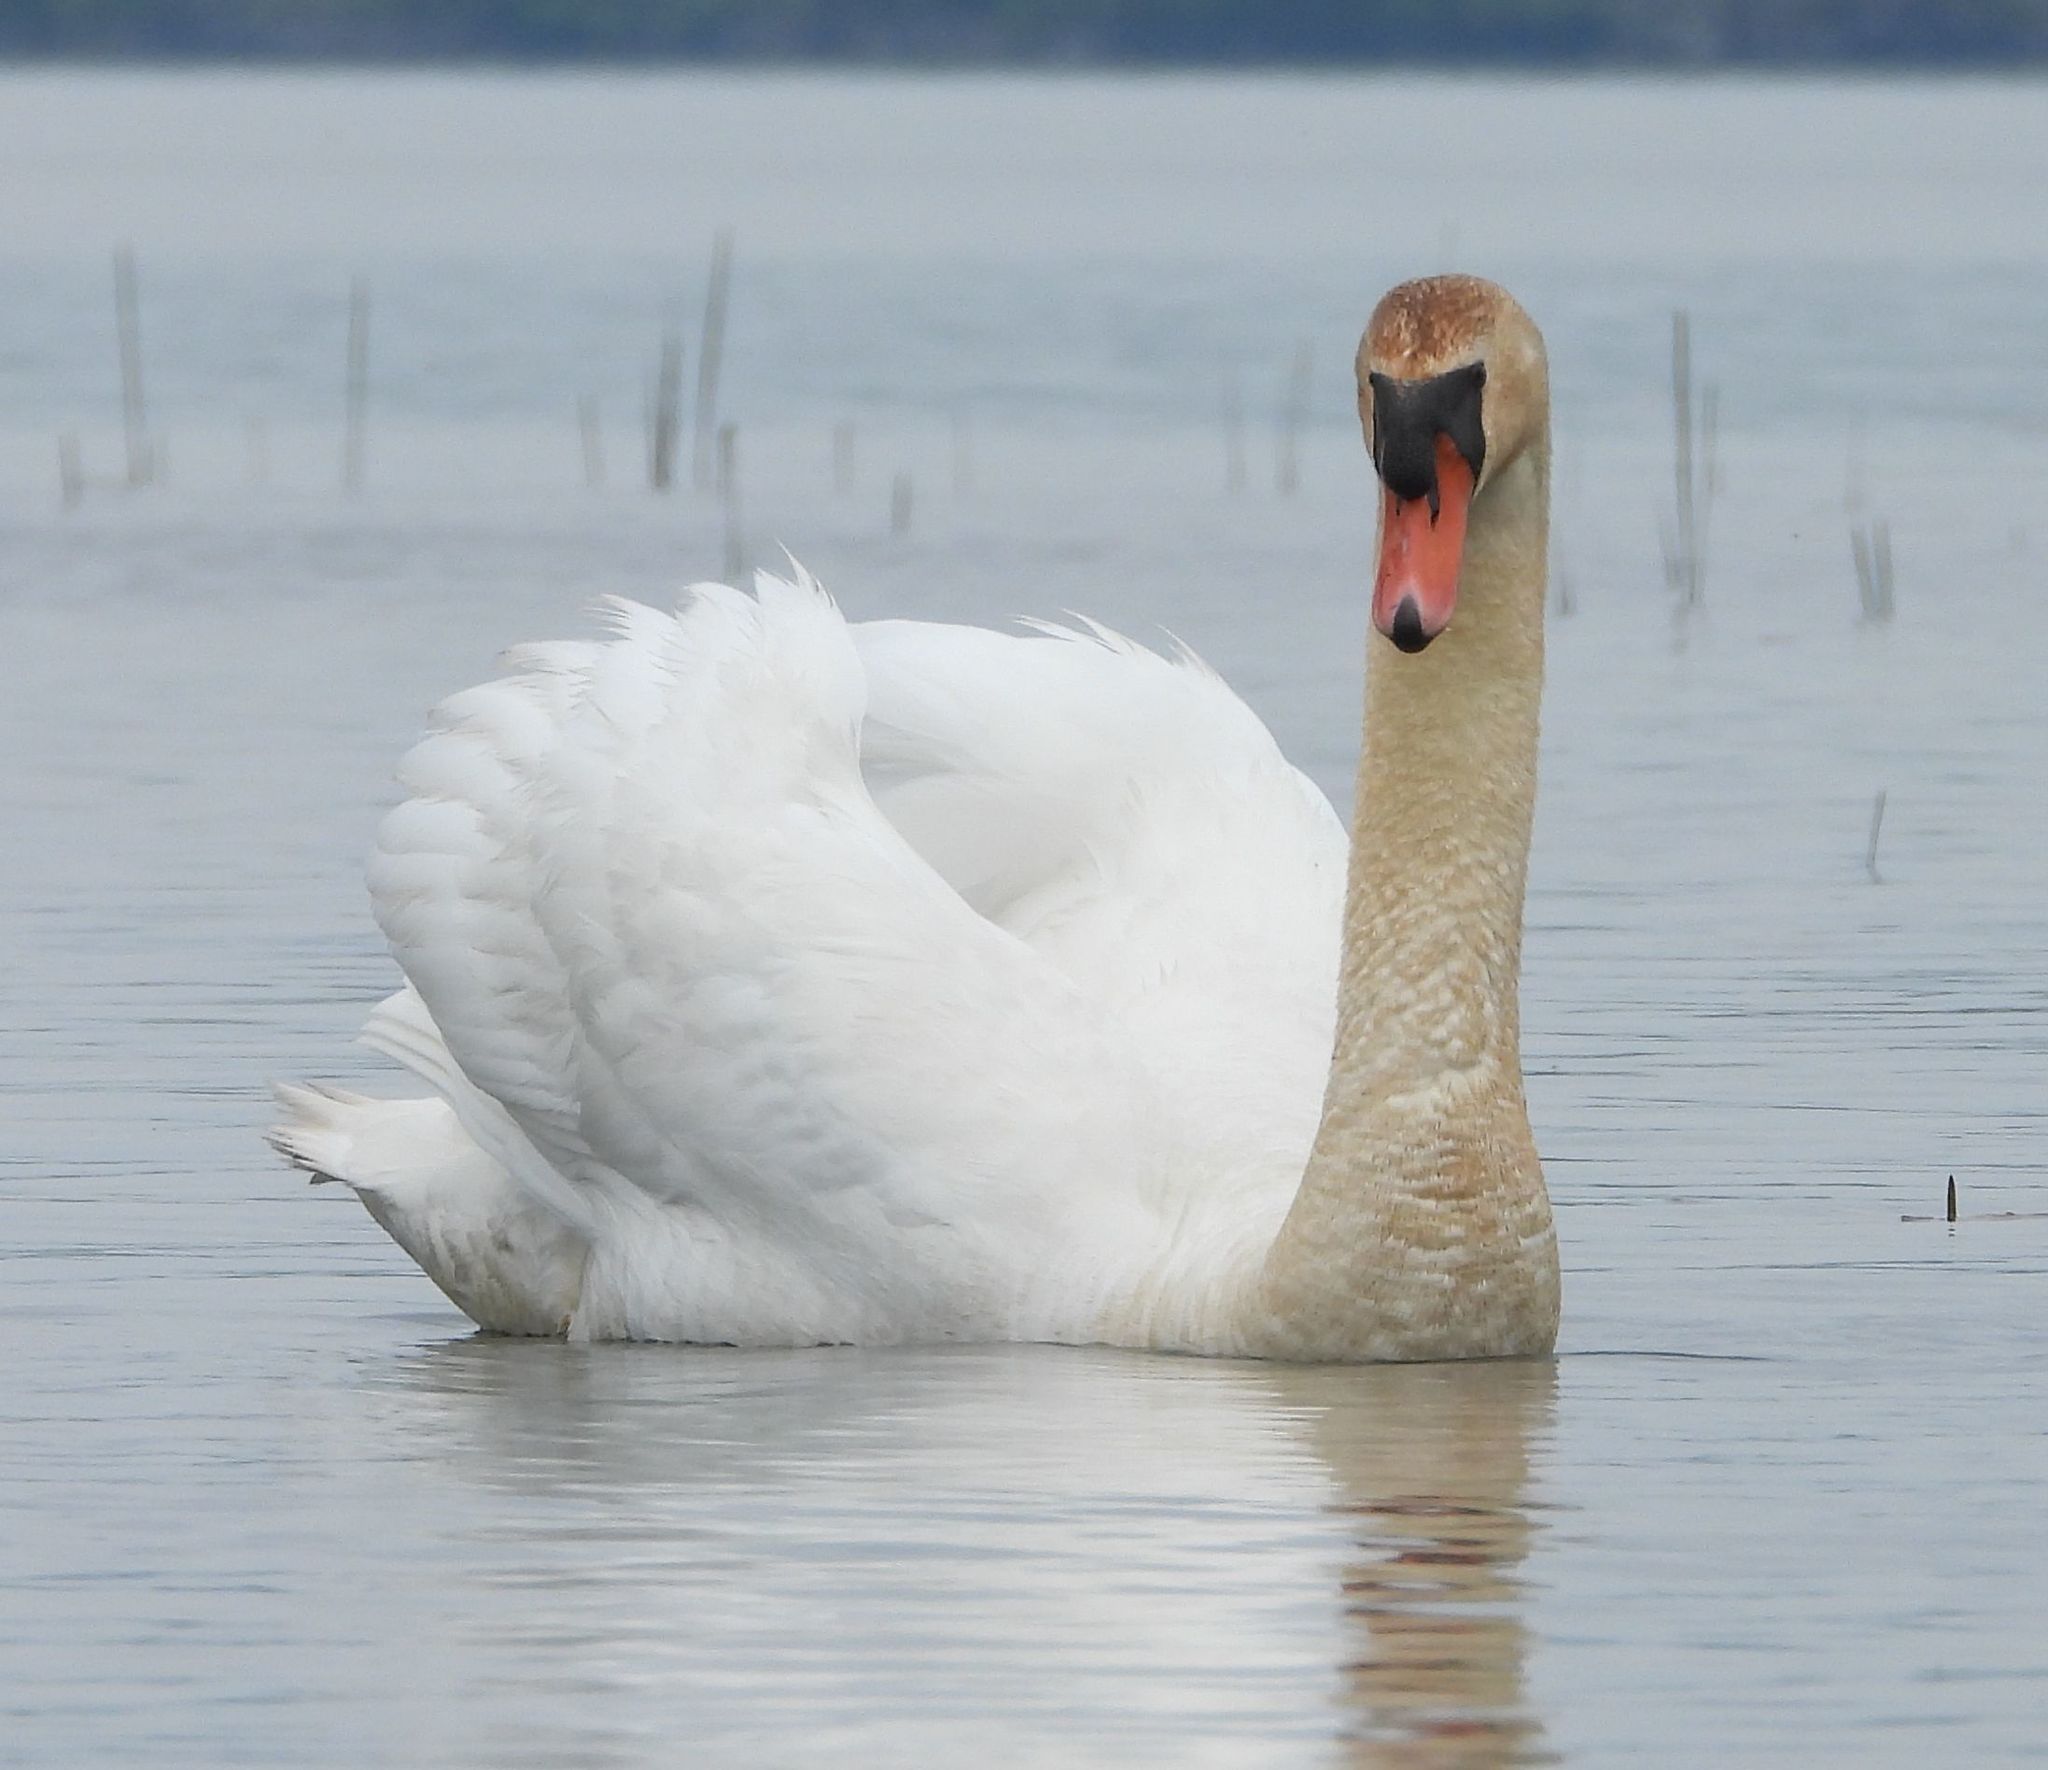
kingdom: Animalia
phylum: Chordata
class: Aves
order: Anseriformes
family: Anatidae
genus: Cygnus
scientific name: Cygnus olor
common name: Mute swan
